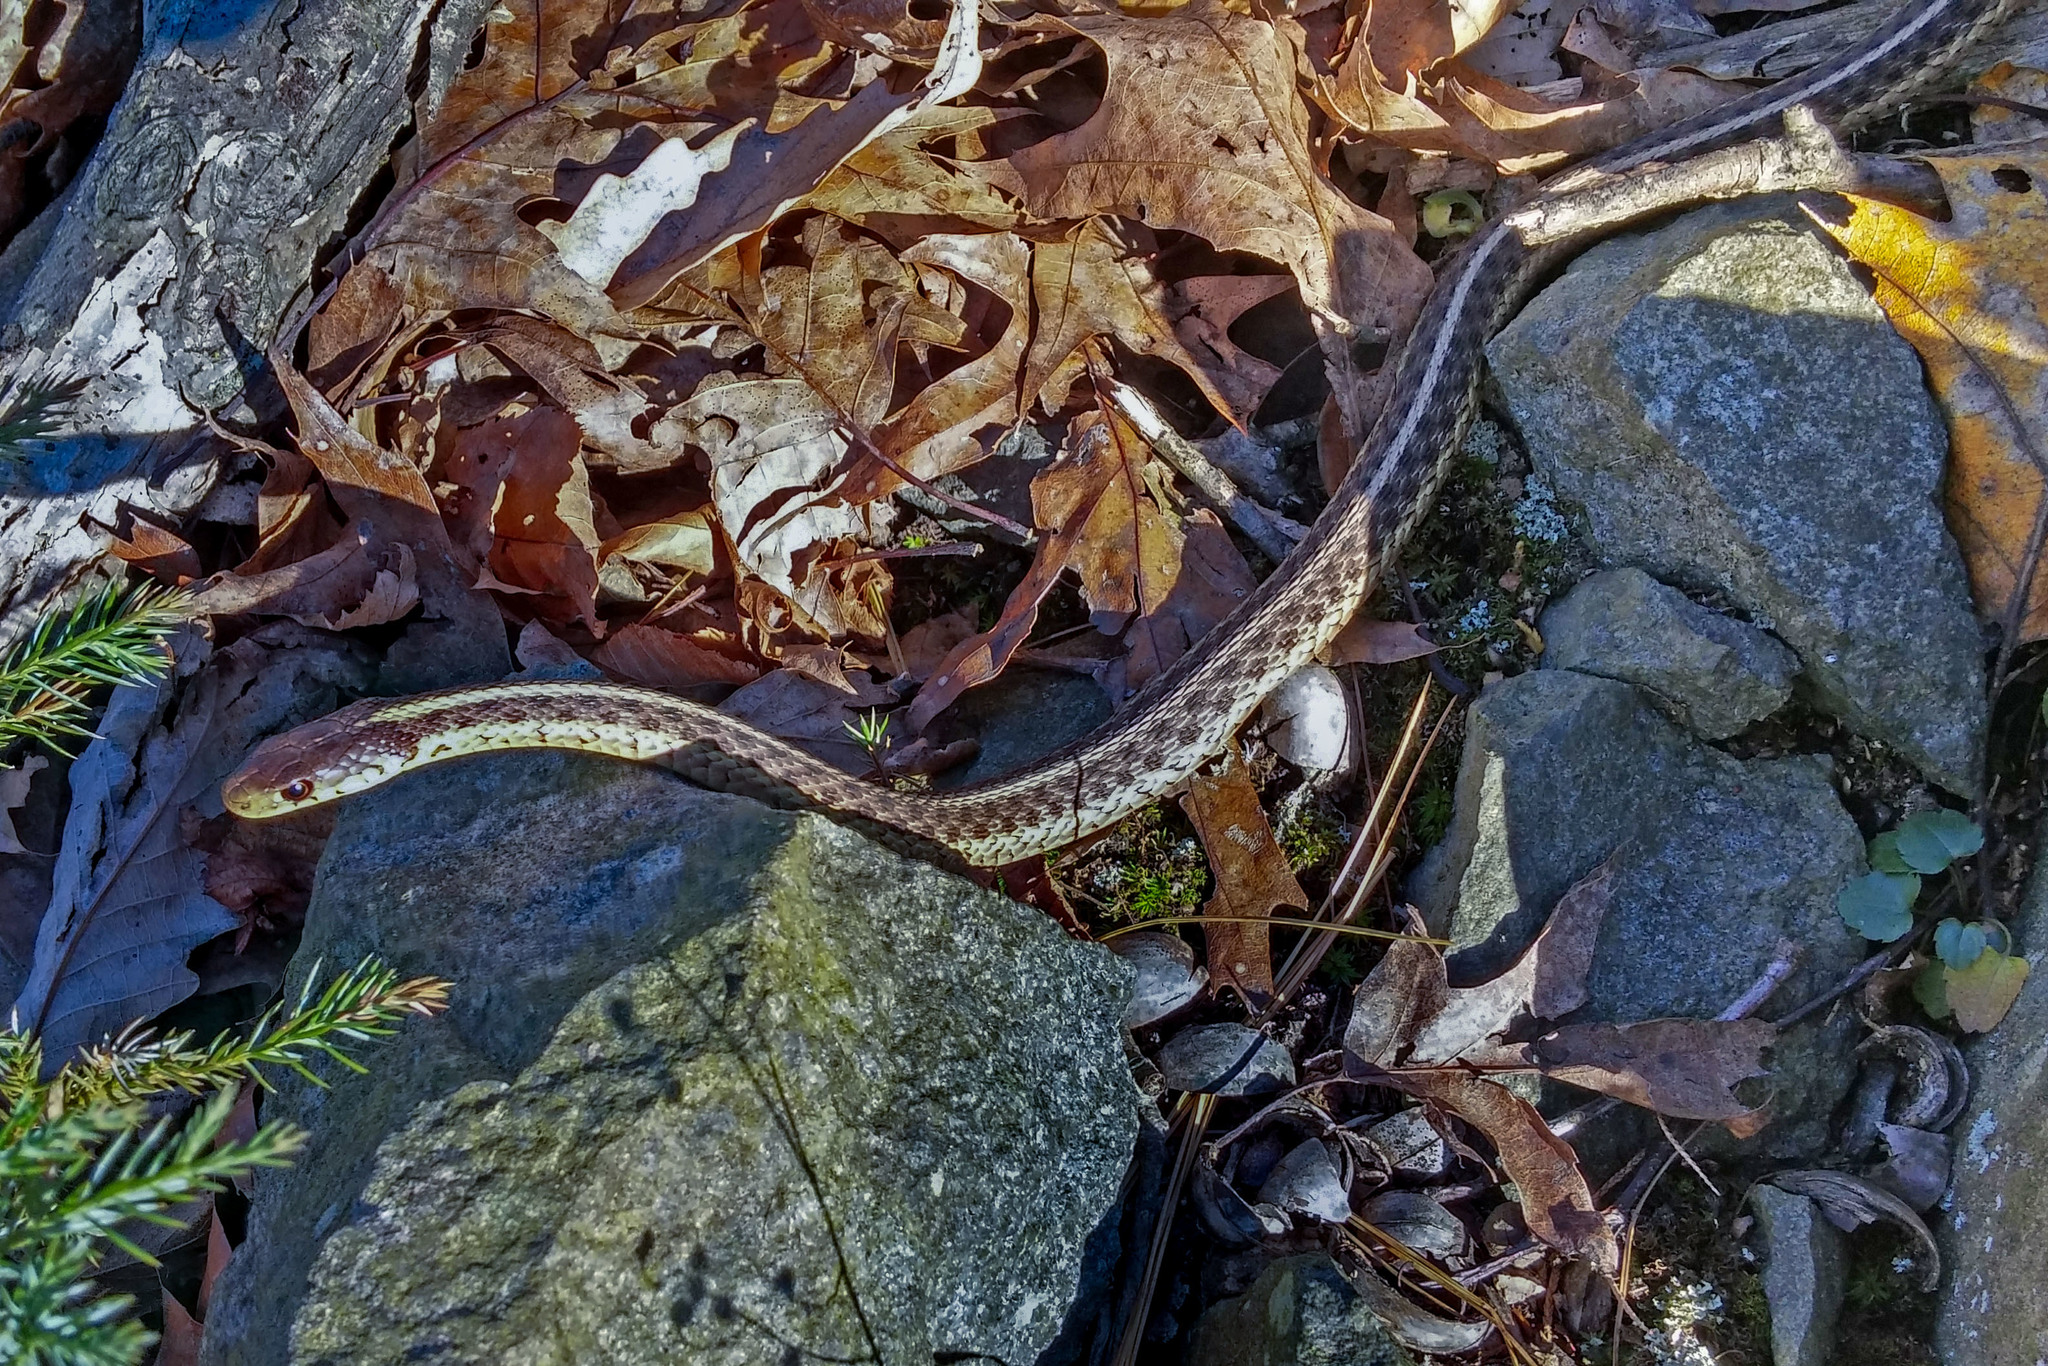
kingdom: Animalia
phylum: Chordata
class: Squamata
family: Colubridae
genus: Thamnophis
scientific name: Thamnophis sirtalis
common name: Common garter snake
